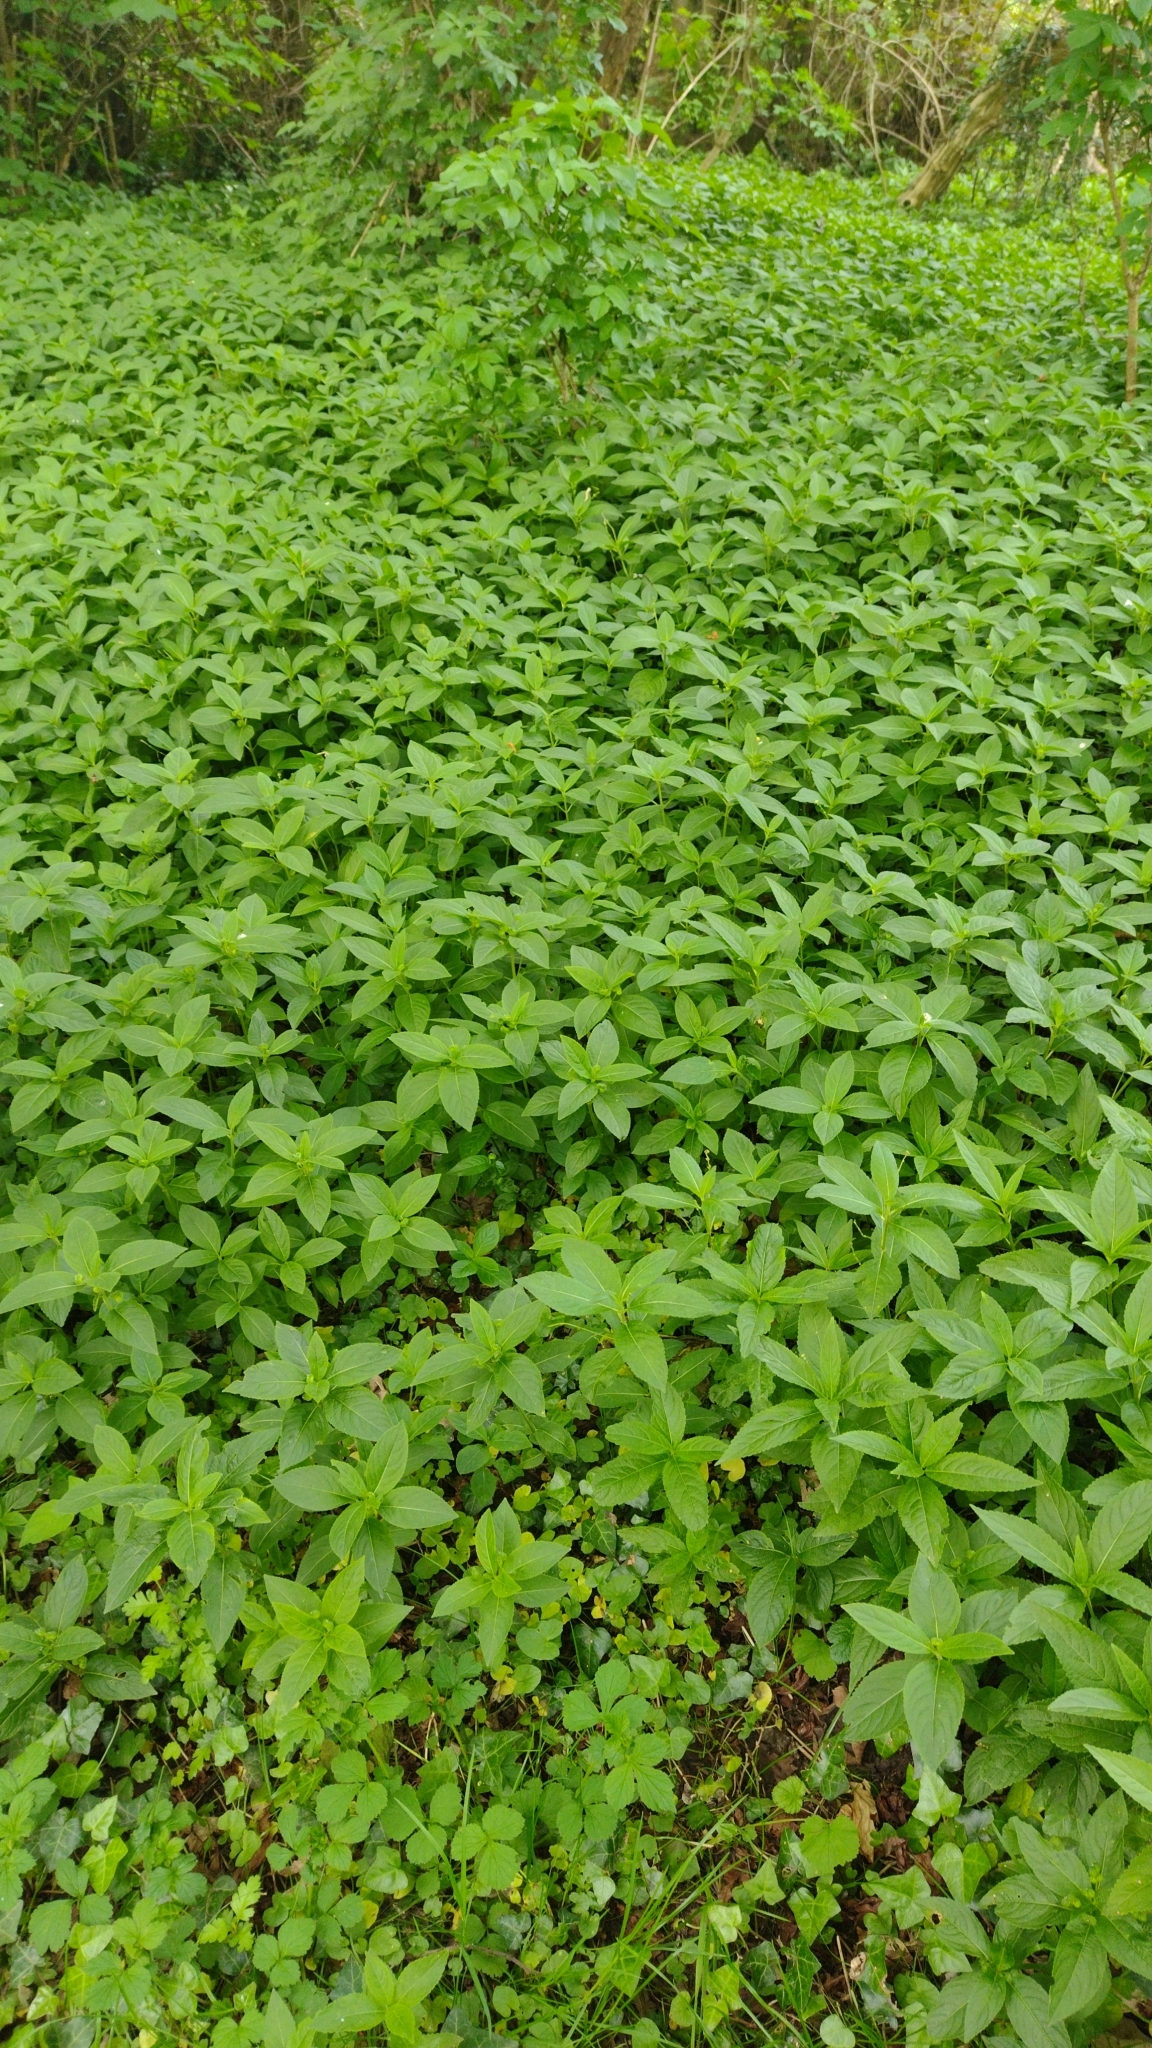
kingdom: Plantae
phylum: Tracheophyta
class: Magnoliopsida
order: Malpighiales
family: Euphorbiaceae
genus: Mercurialis
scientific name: Mercurialis perennis
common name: Dog mercury
